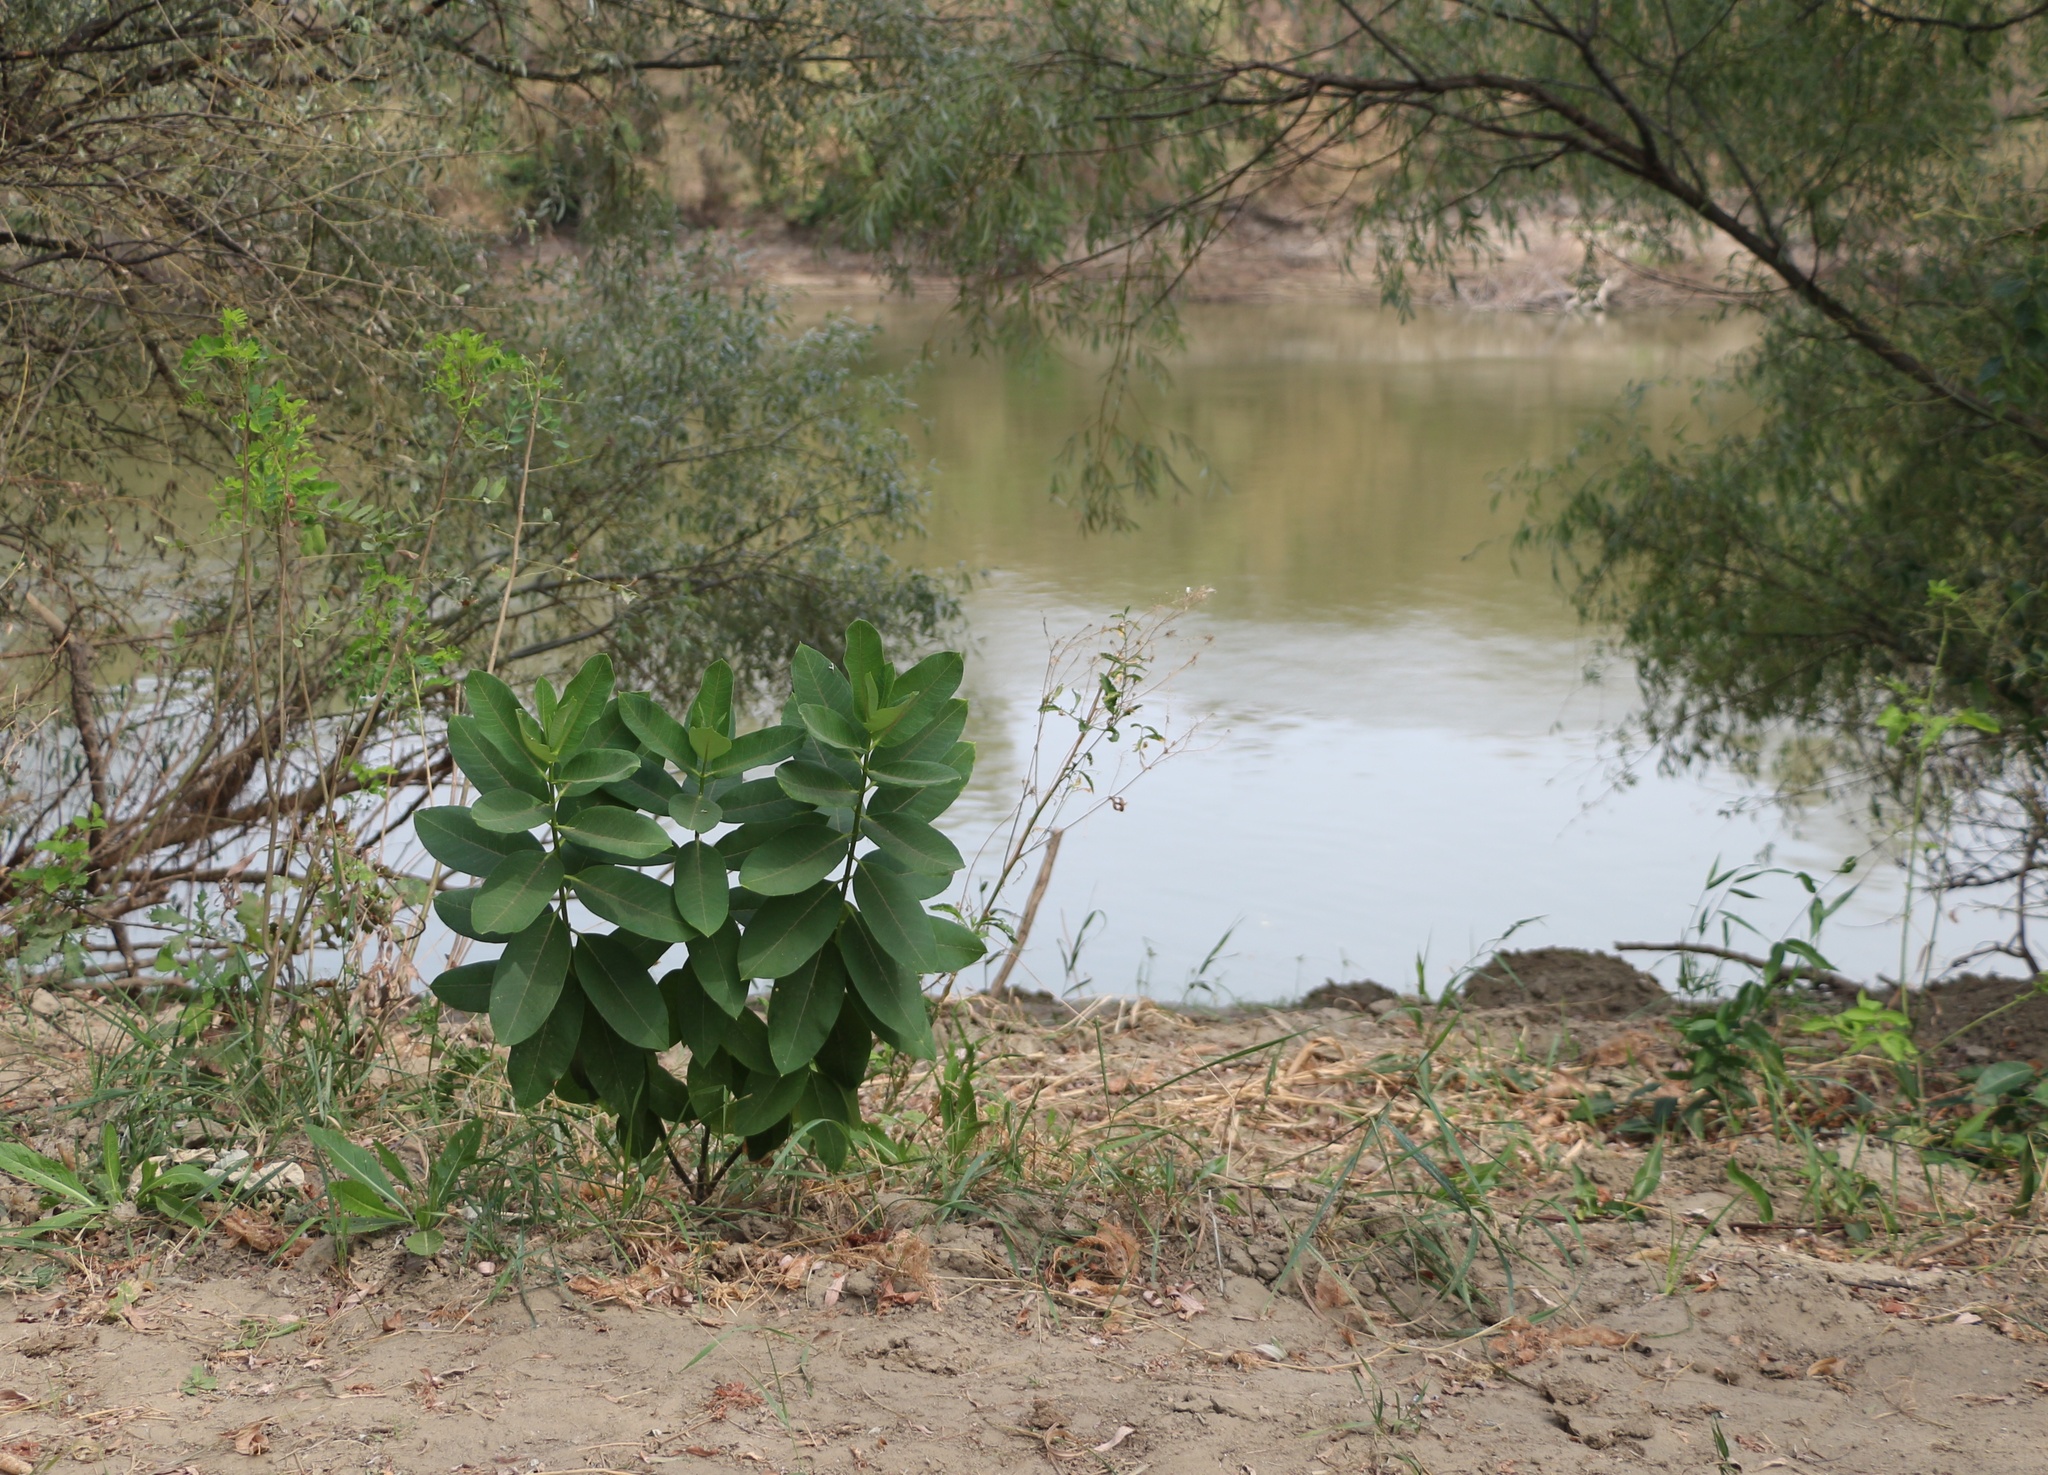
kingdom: Plantae
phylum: Tracheophyta
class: Magnoliopsida
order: Gentianales
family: Apocynaceae
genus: Asclepias
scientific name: Asclepias syriaca
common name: Common milkweed
